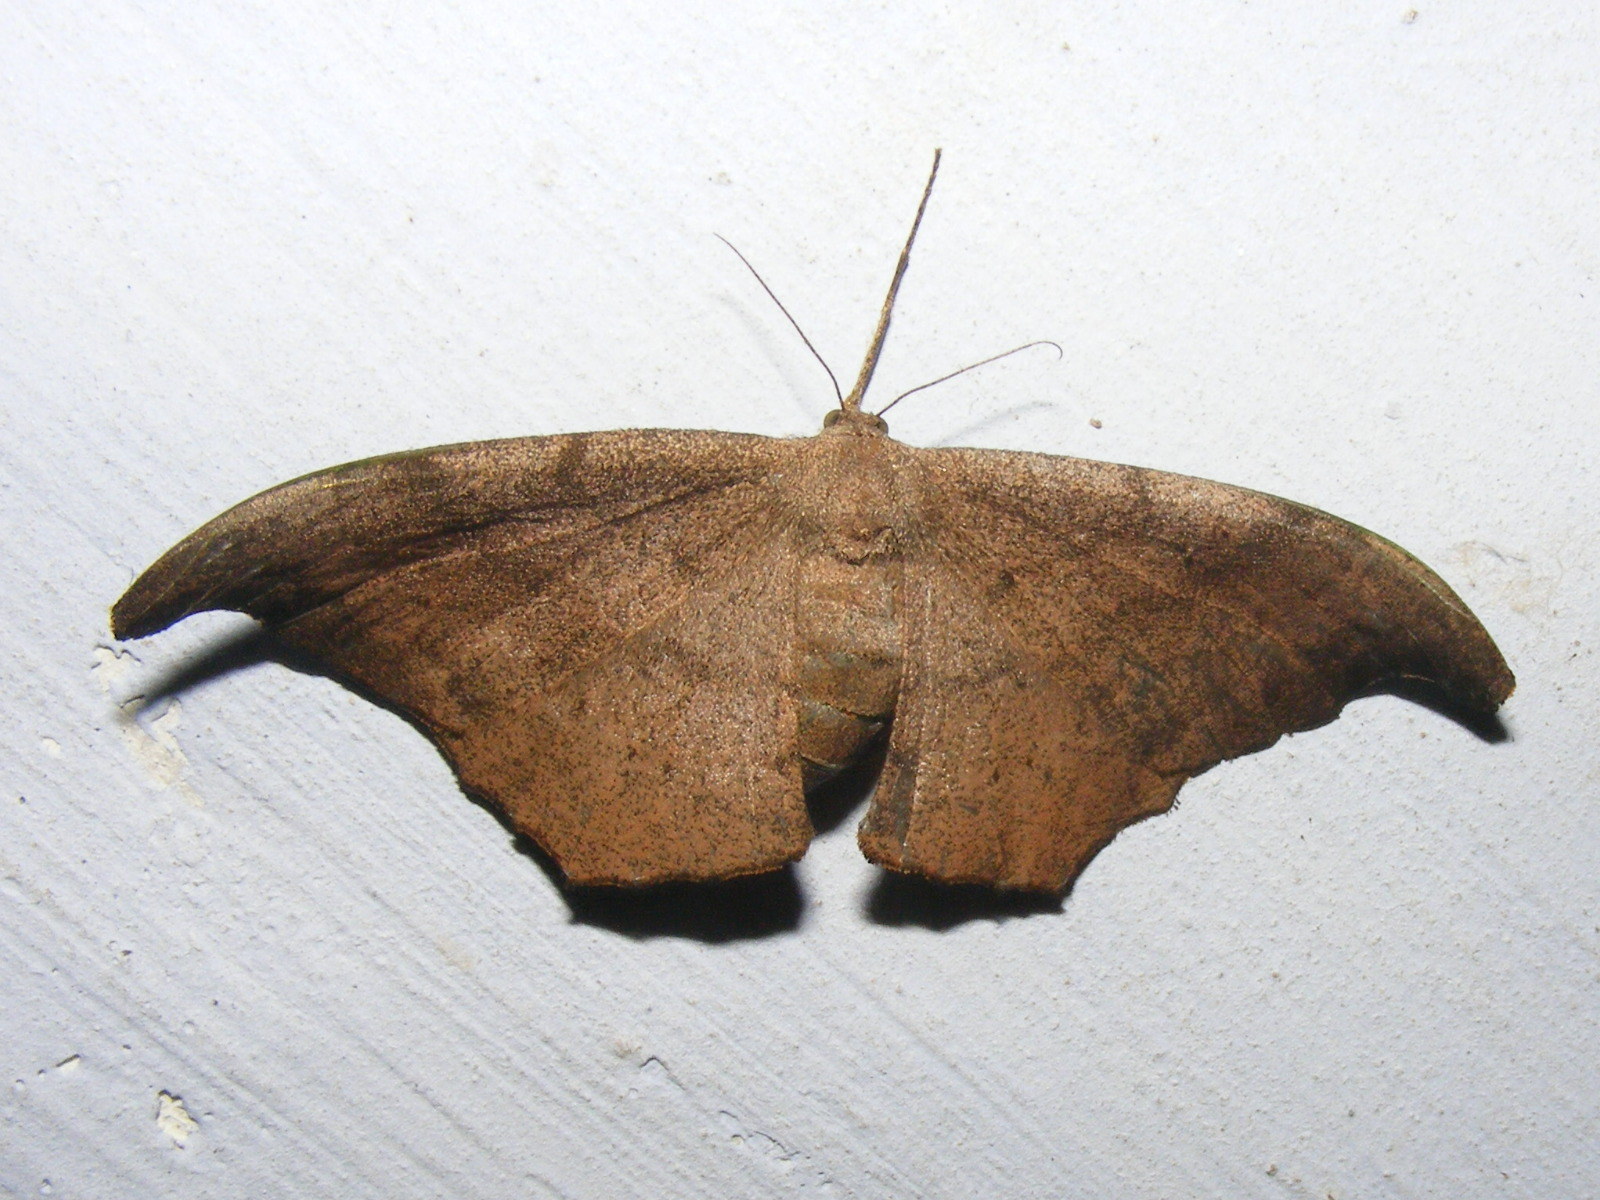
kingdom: Animalia
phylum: Arthropoda
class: Insecta
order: Lepidoptera
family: Geometridae
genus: Hyposidra
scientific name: Hyposidra talaca
